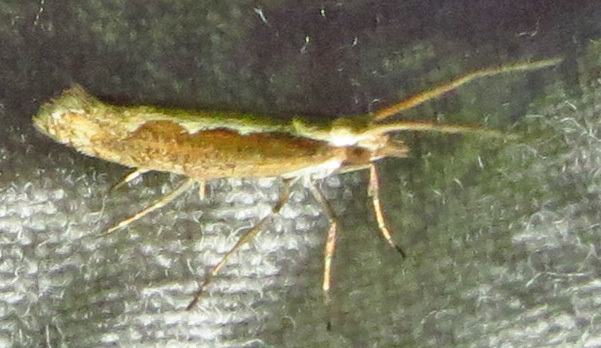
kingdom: Animalia
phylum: Arthropoda
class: Insecta
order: Lepidoptera
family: Plutellidae
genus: Plutella
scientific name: Plutella xylostella
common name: Diamond-back moth
